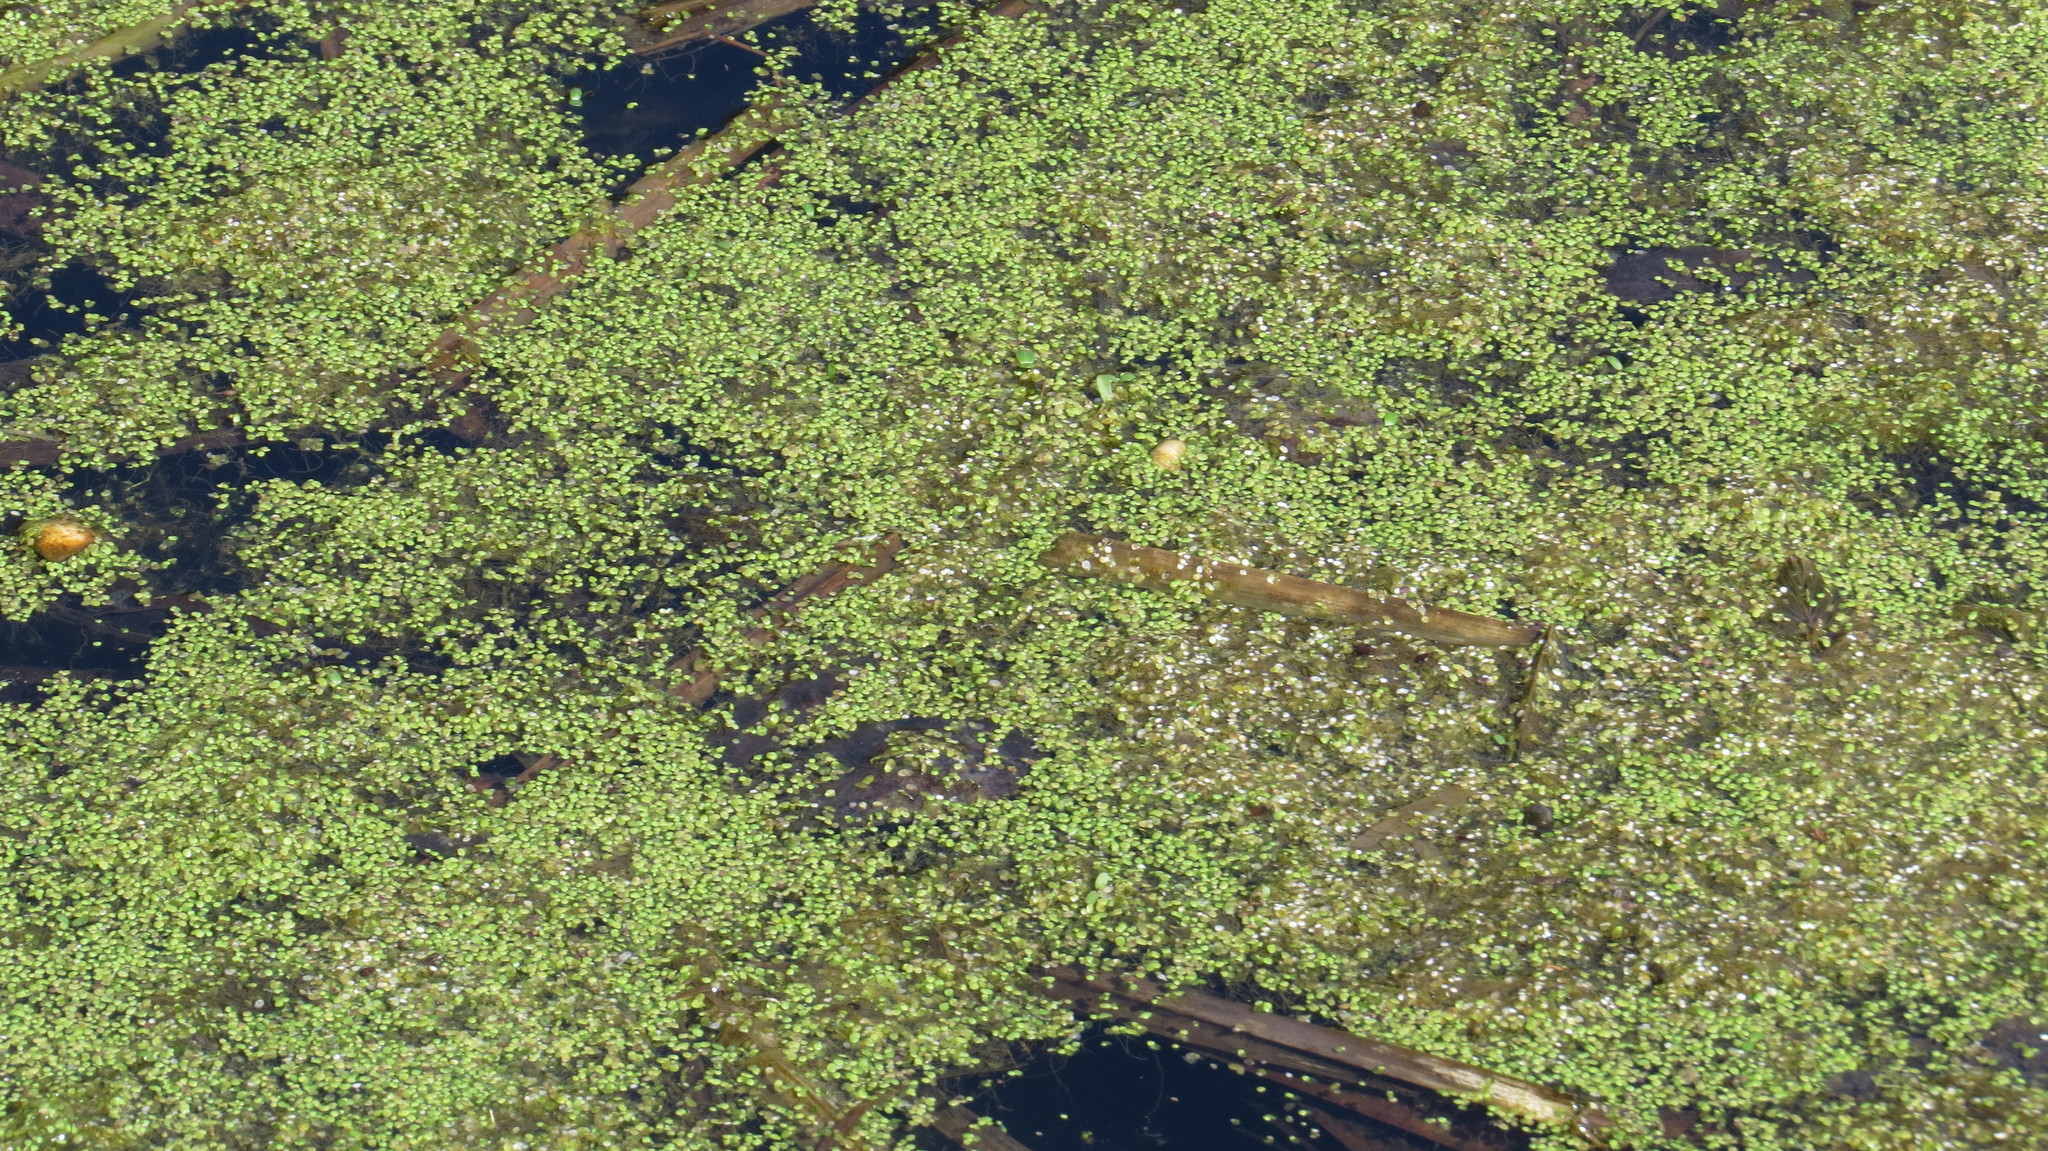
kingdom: Plantae
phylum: Tracheophyta
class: Liliopsida
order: Alismatales
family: Araceae
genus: Lemna
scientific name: Lemna minor
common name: Common duckweed
